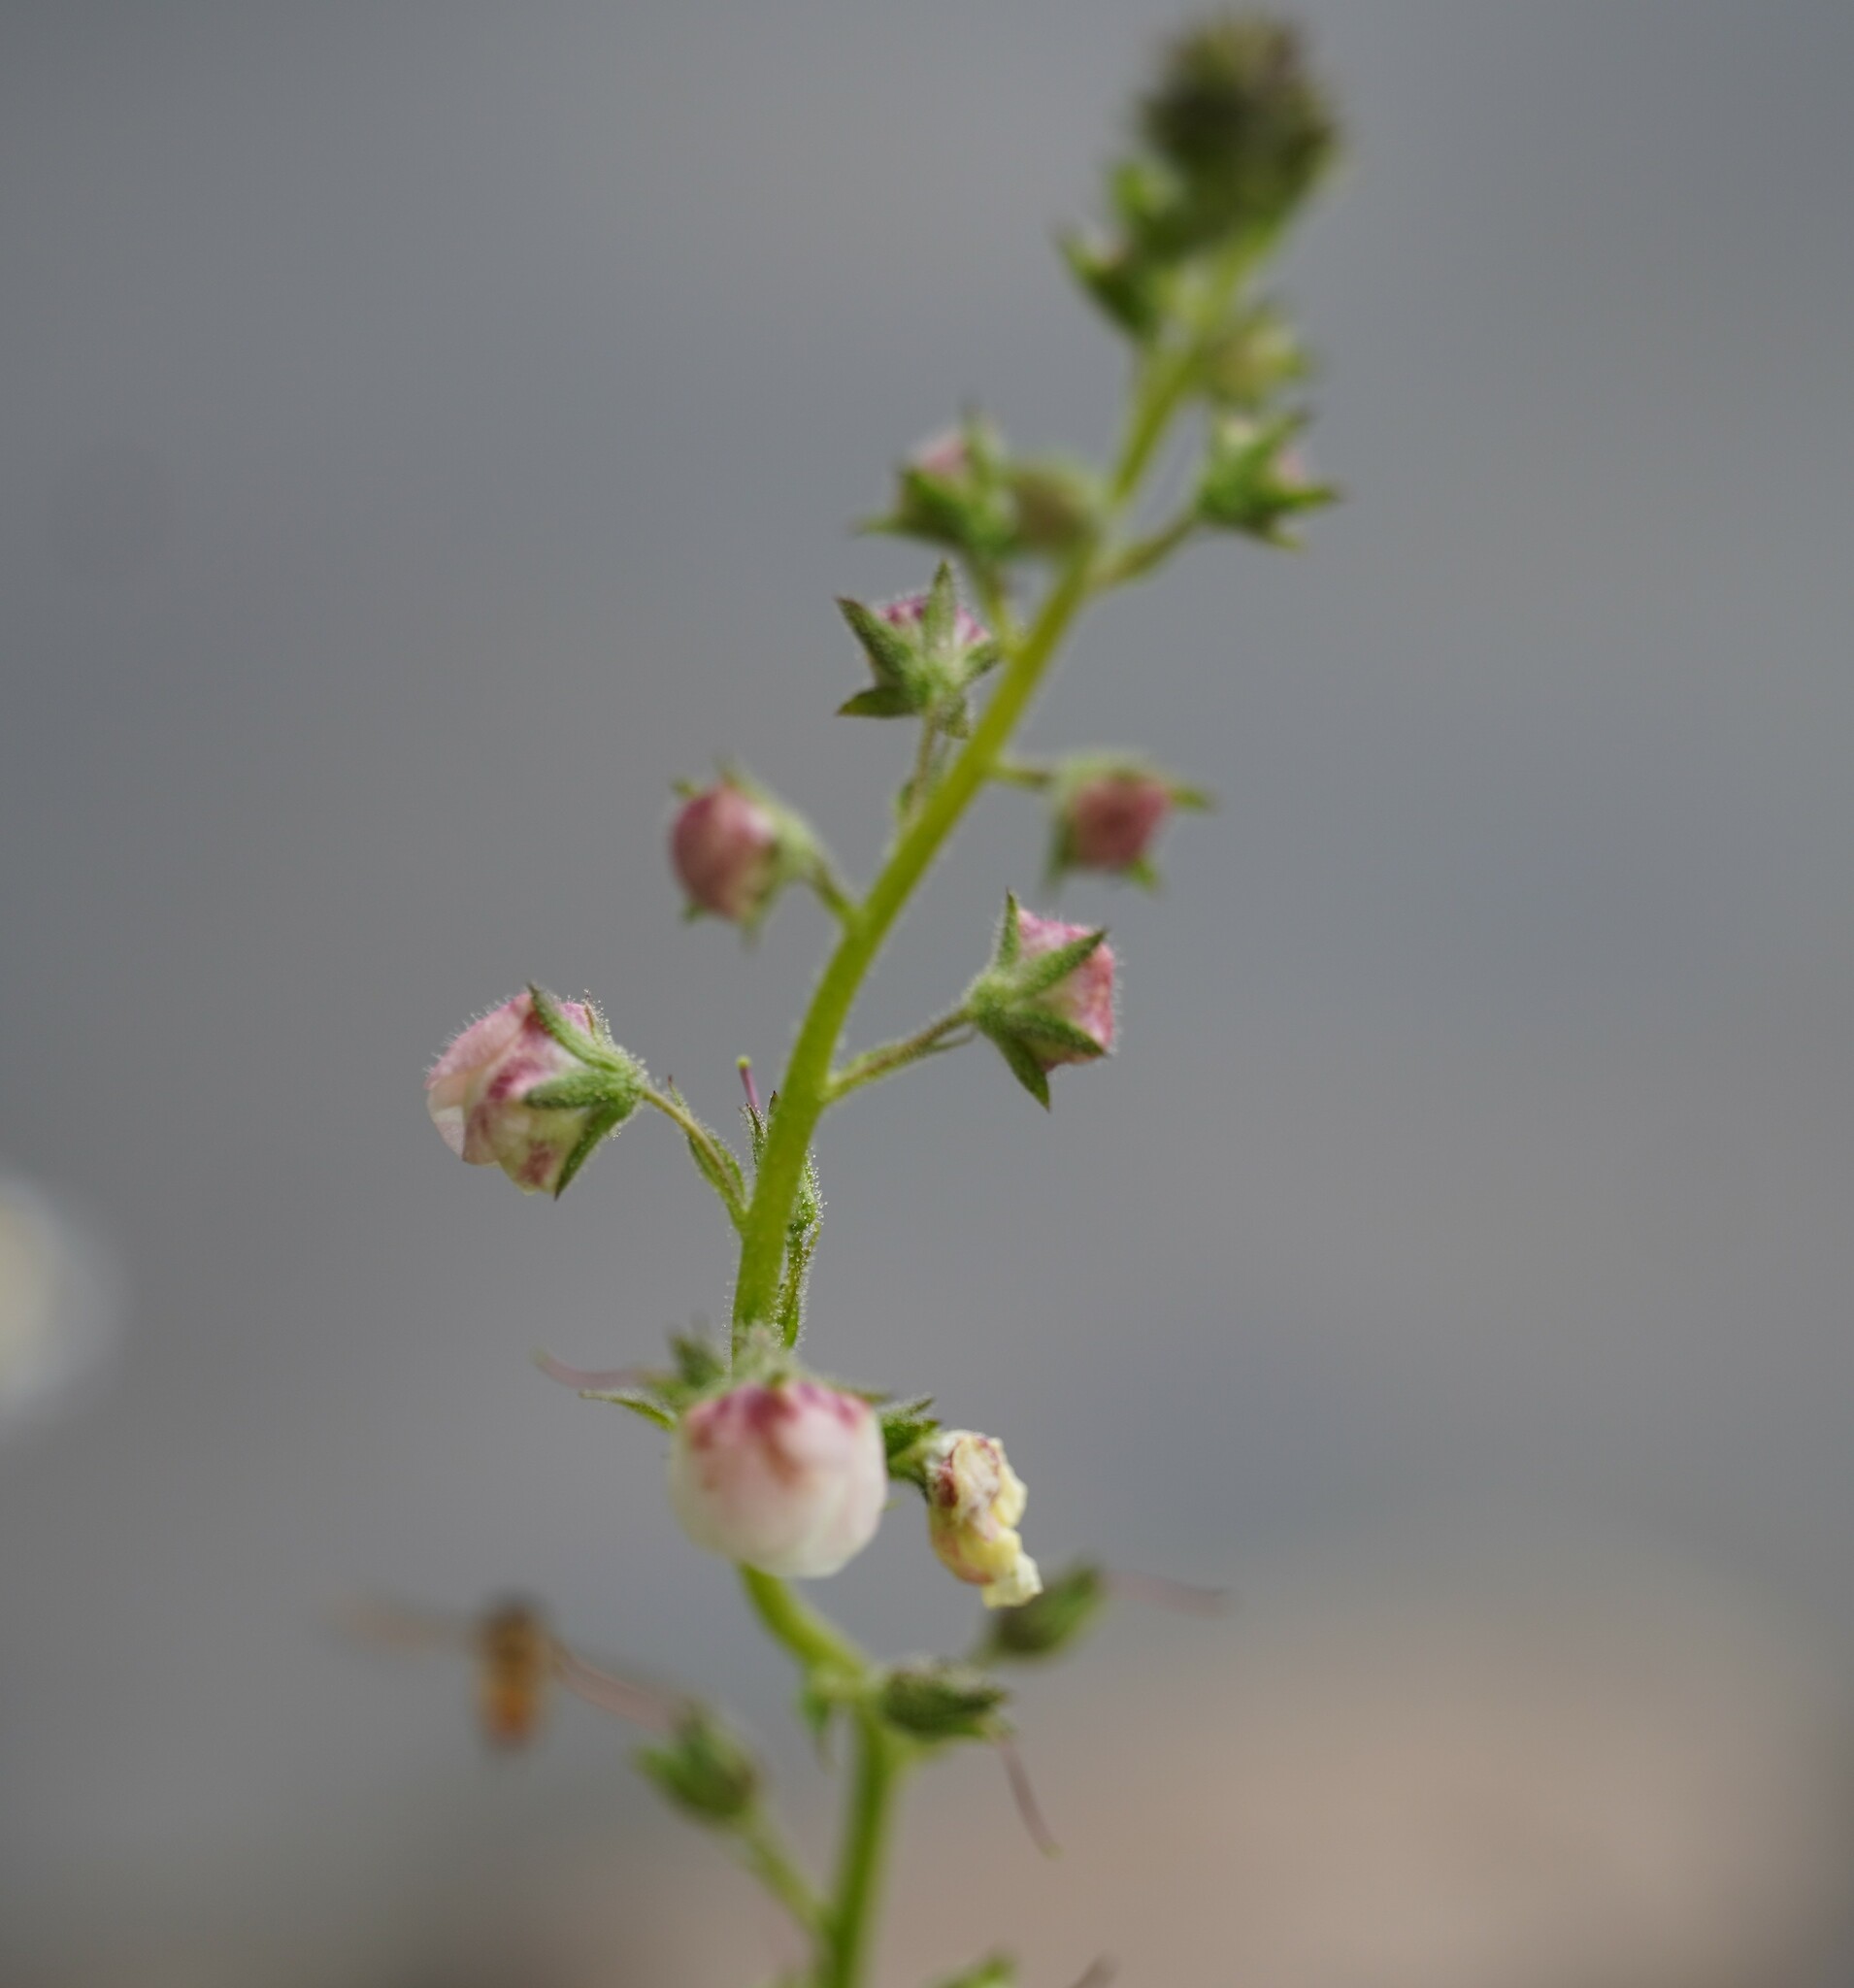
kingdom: Plantae
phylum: Tracheophyta
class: Magnoliopsida
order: Lamiales
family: Scrophulariaceae
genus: Verbascum
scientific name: Verbascum blattaria
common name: Moth mullein
